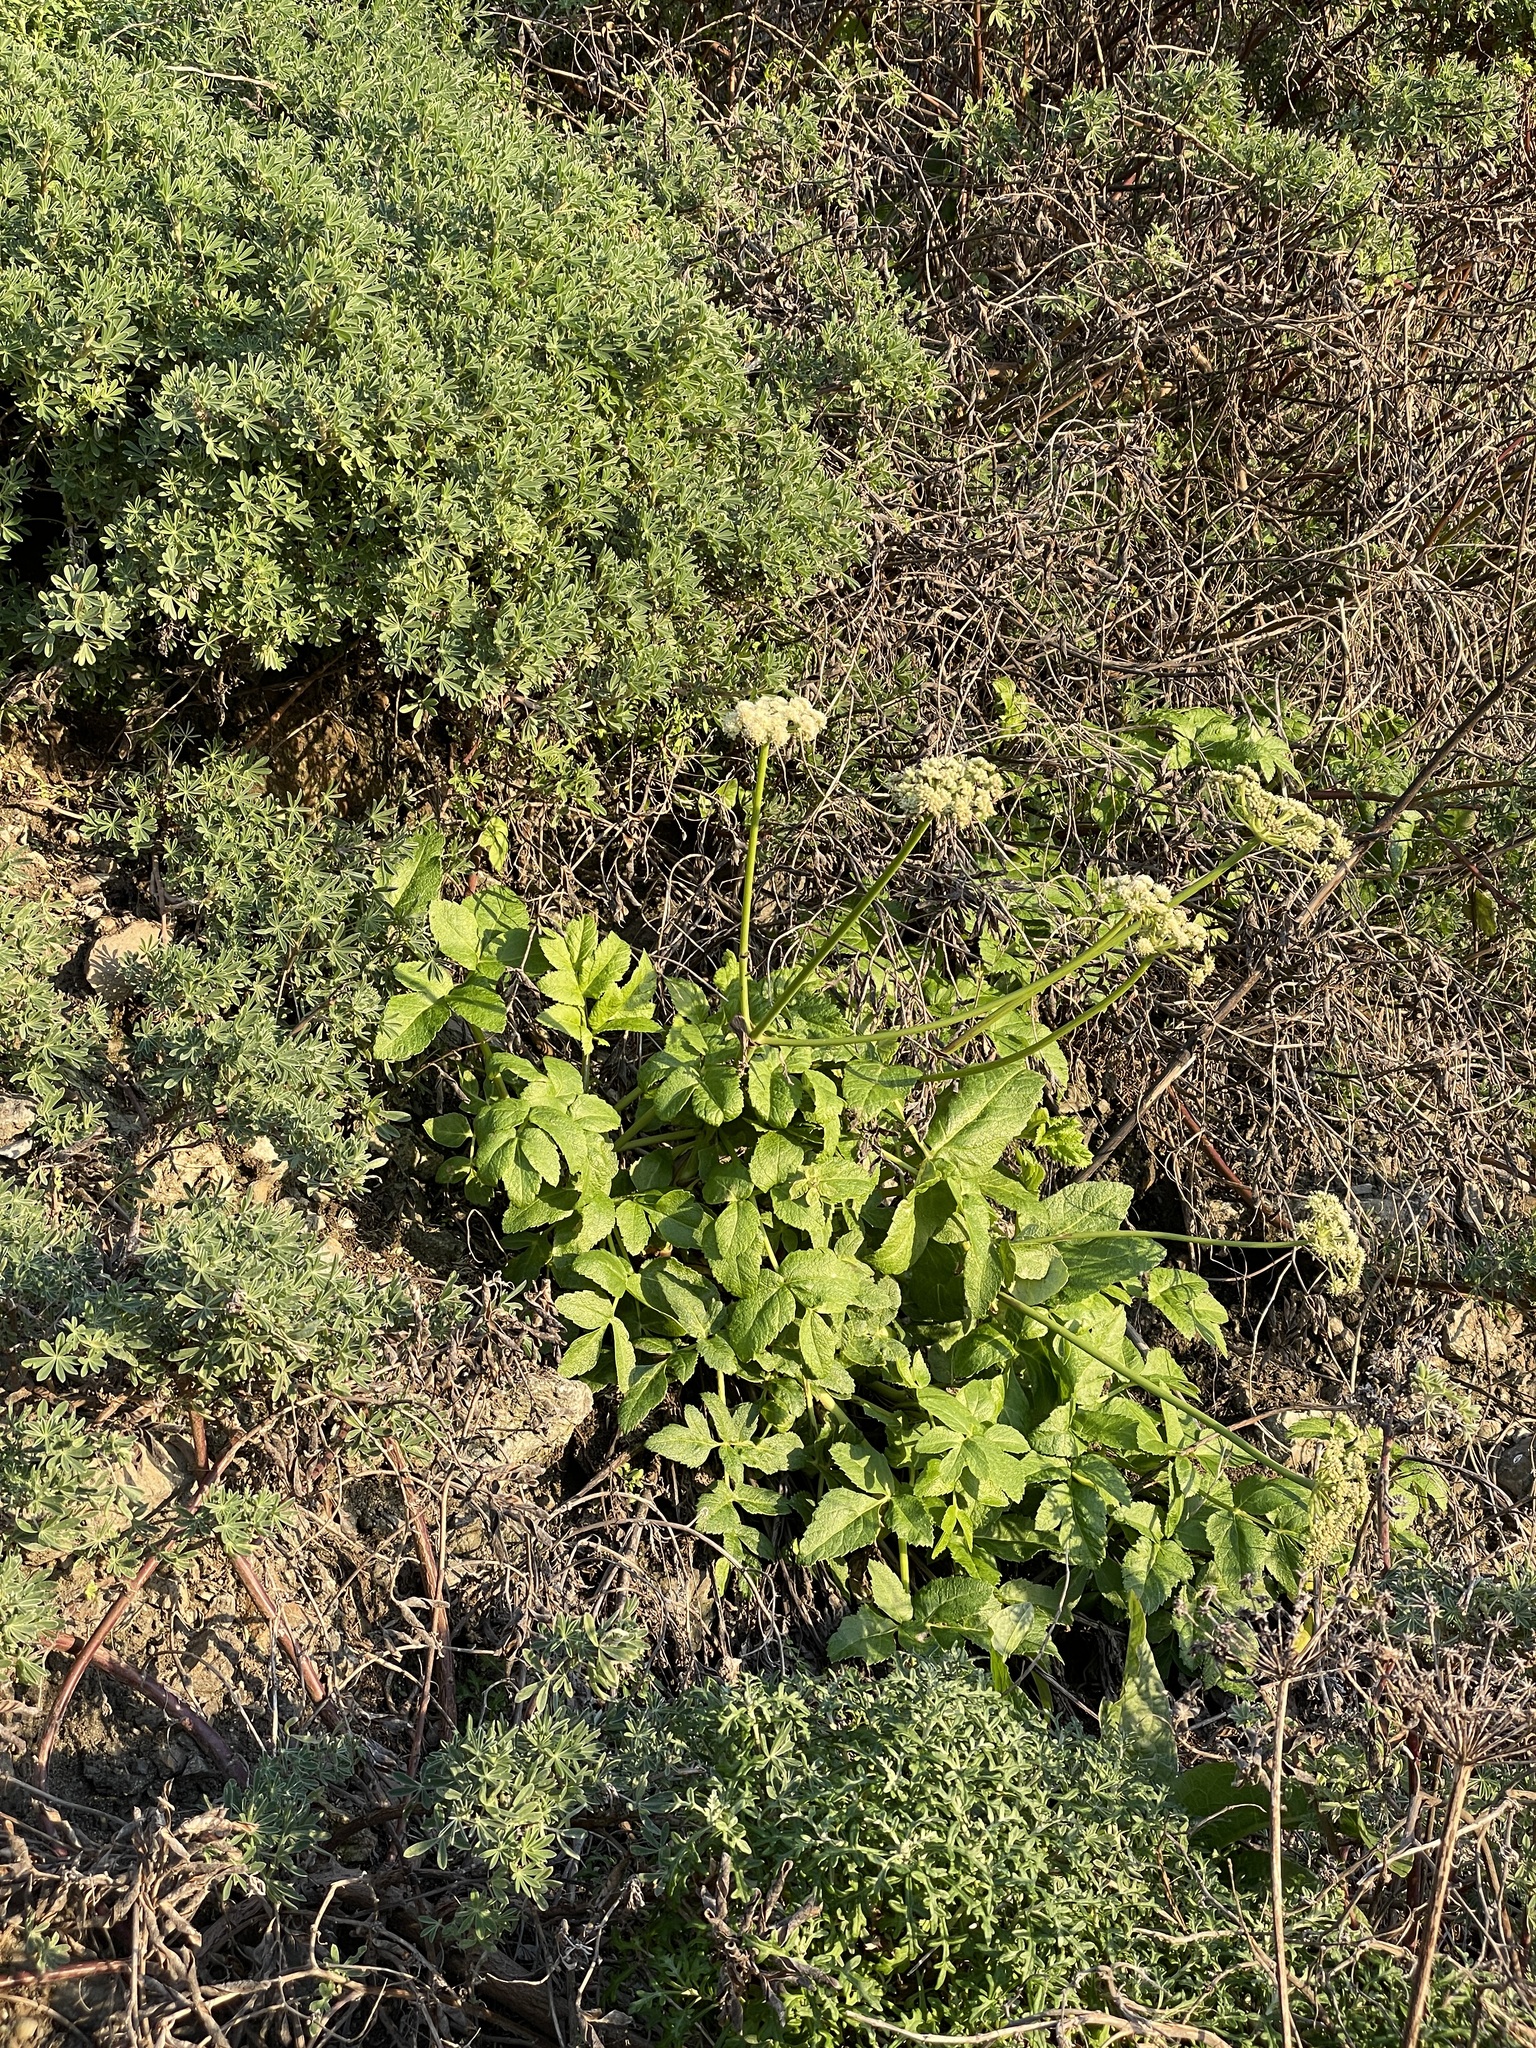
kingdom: Plantae
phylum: Tracheophyta
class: Magnoliopsida
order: Apiales
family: Apiaceae
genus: Angelica
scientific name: Angelica hendersonii
